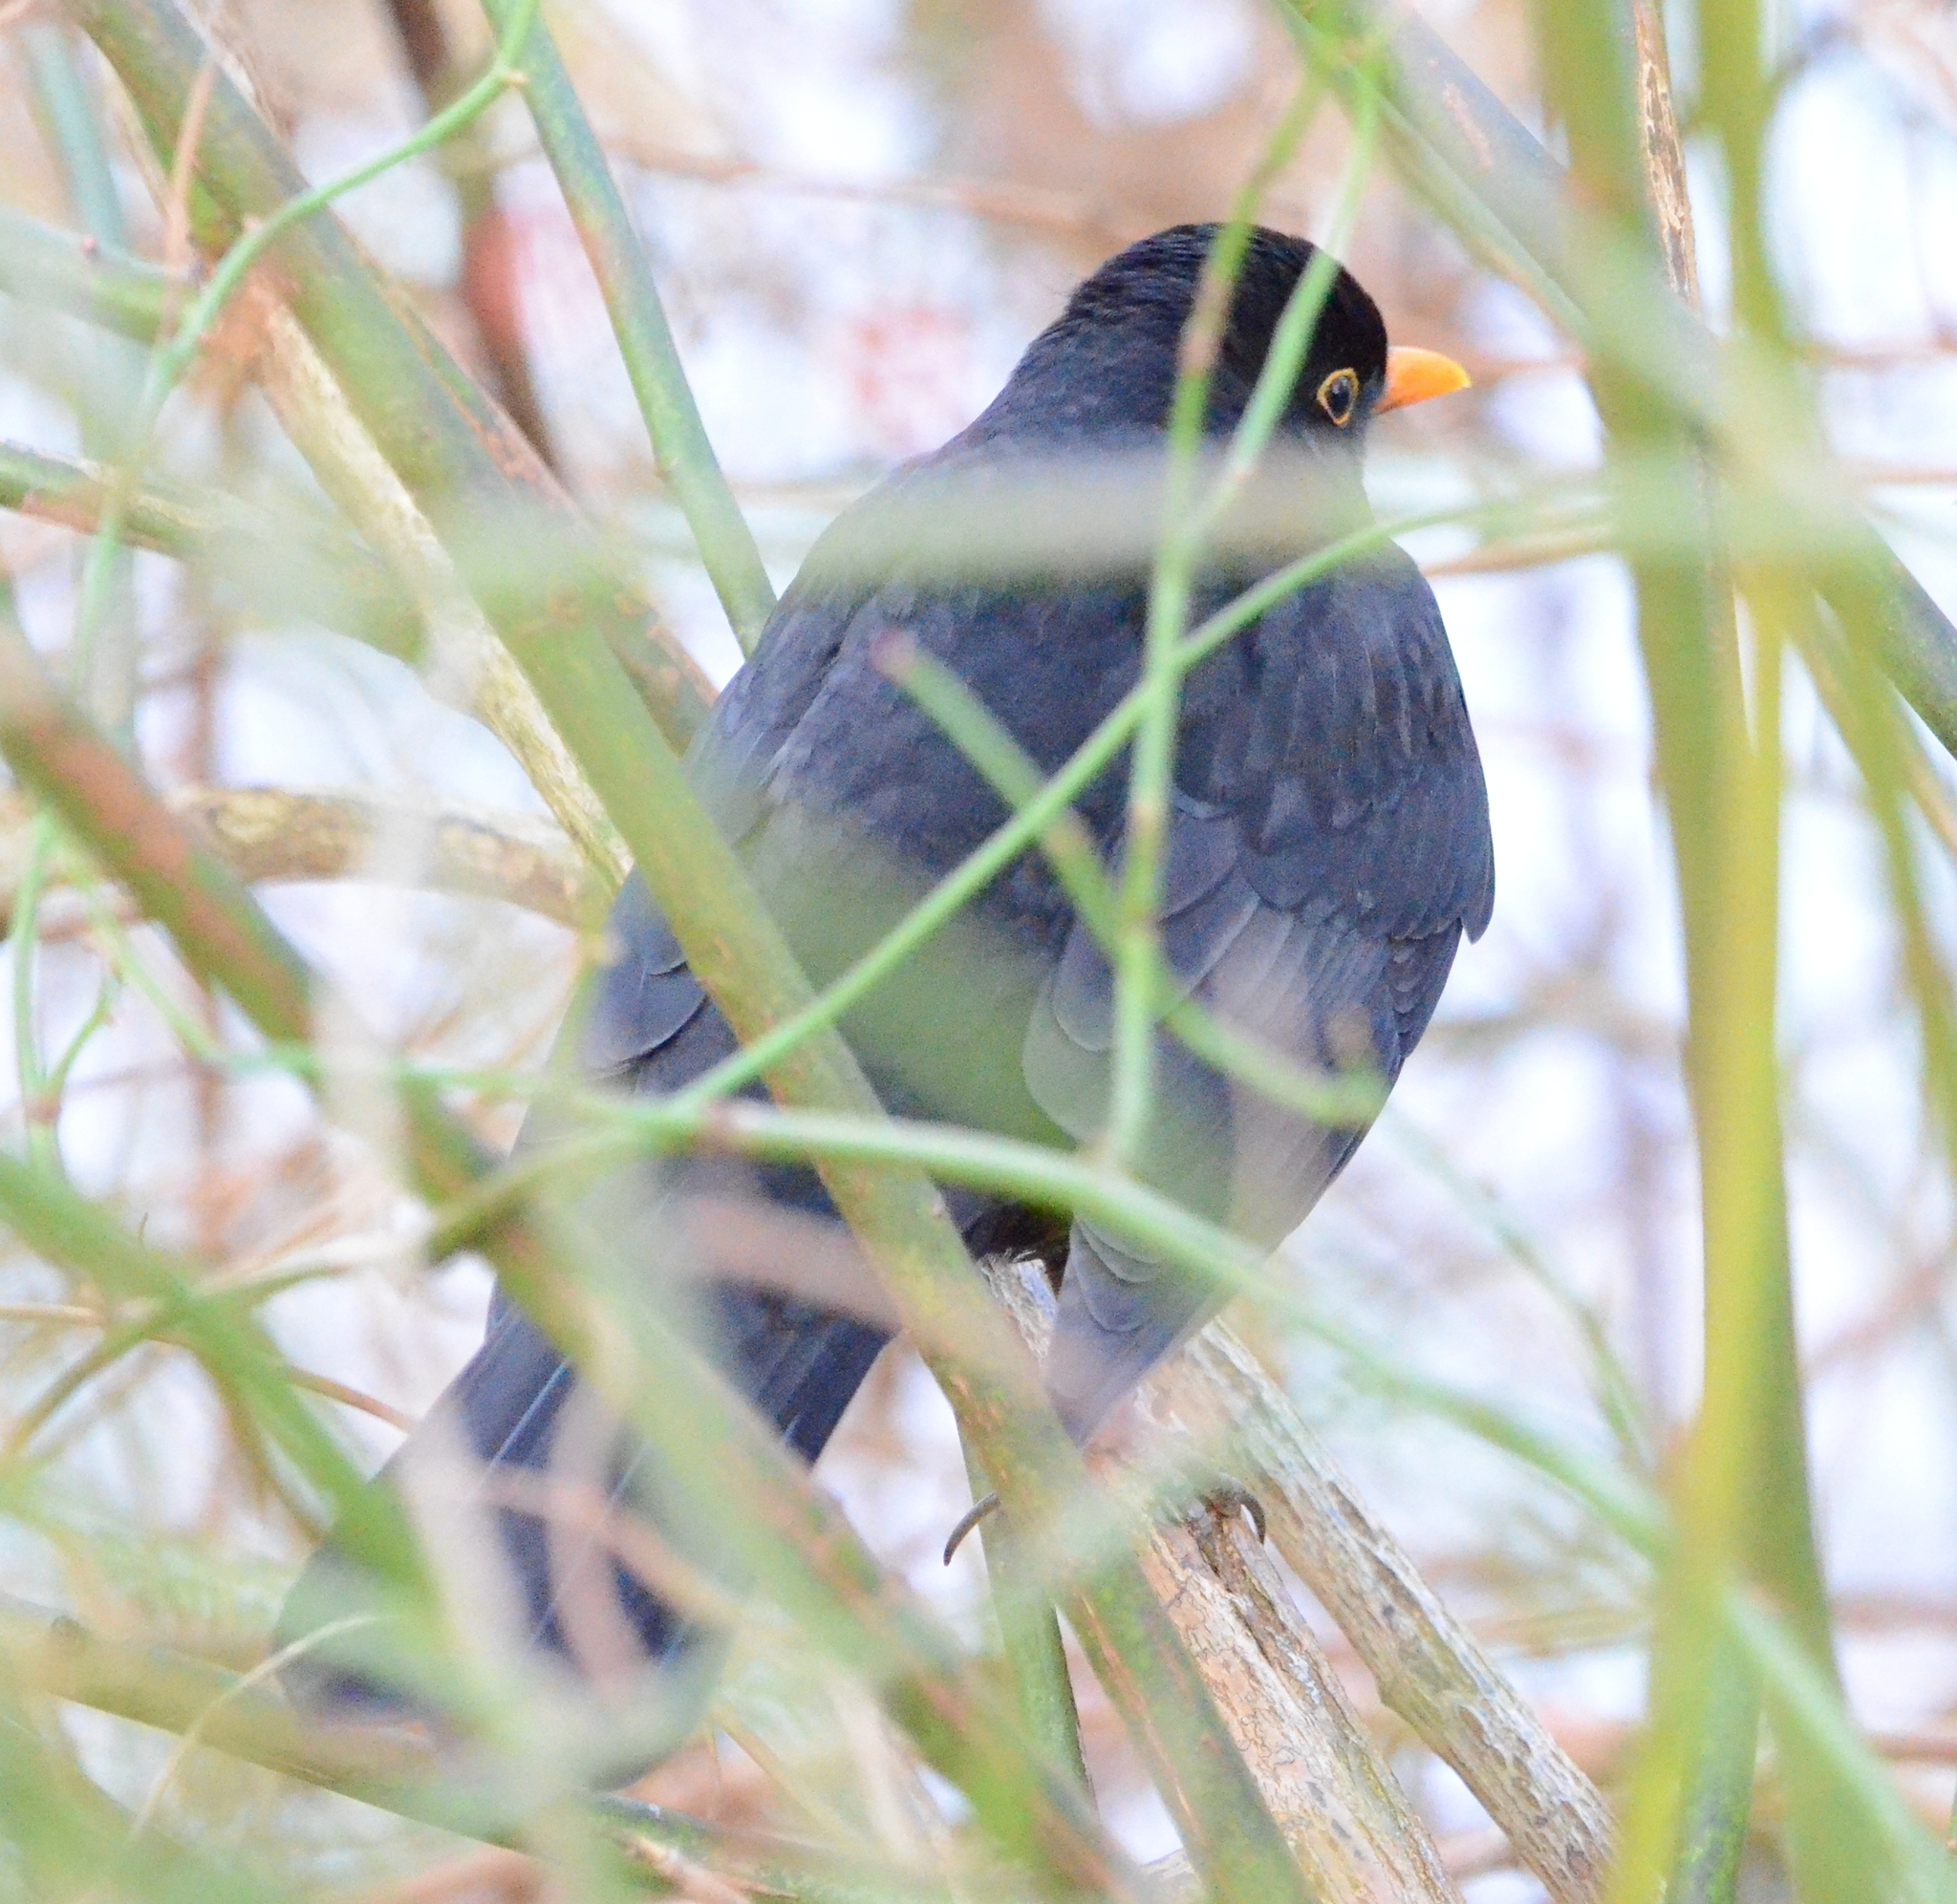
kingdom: Animalia
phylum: Chordata
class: Aves
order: Passeriformes
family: Turdidae
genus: Turdus
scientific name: Turdus merula
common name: Common blackbird
